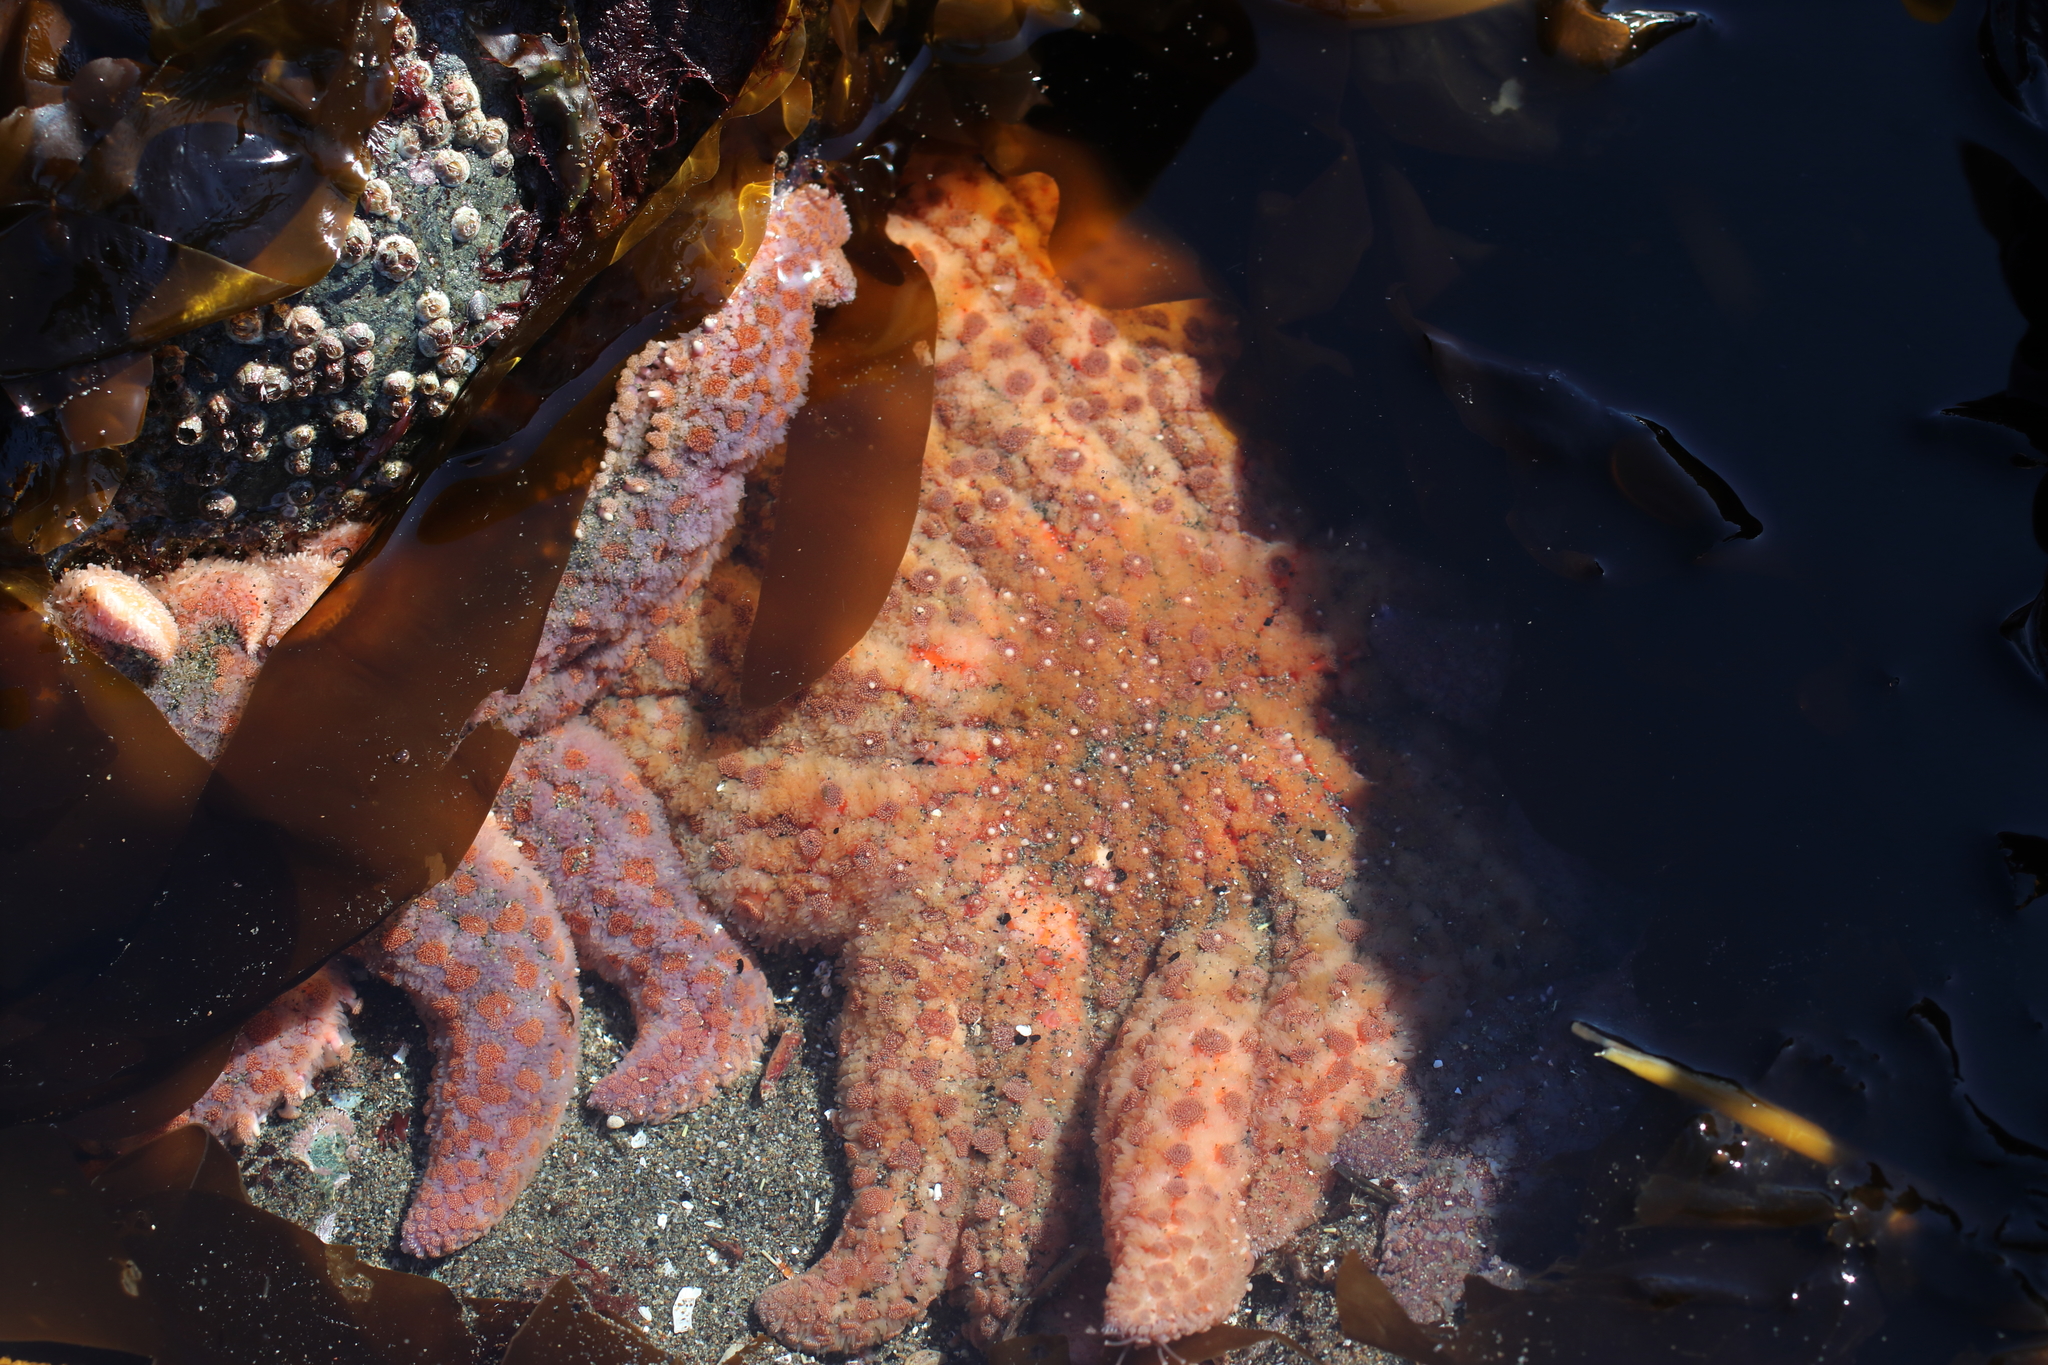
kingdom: Animalia
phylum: Echinodermata
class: Asteroidea
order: Forcipulatida
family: Asteriidae
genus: Pycnopodia
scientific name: Pycnopodia helianthoides
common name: Rag mop
